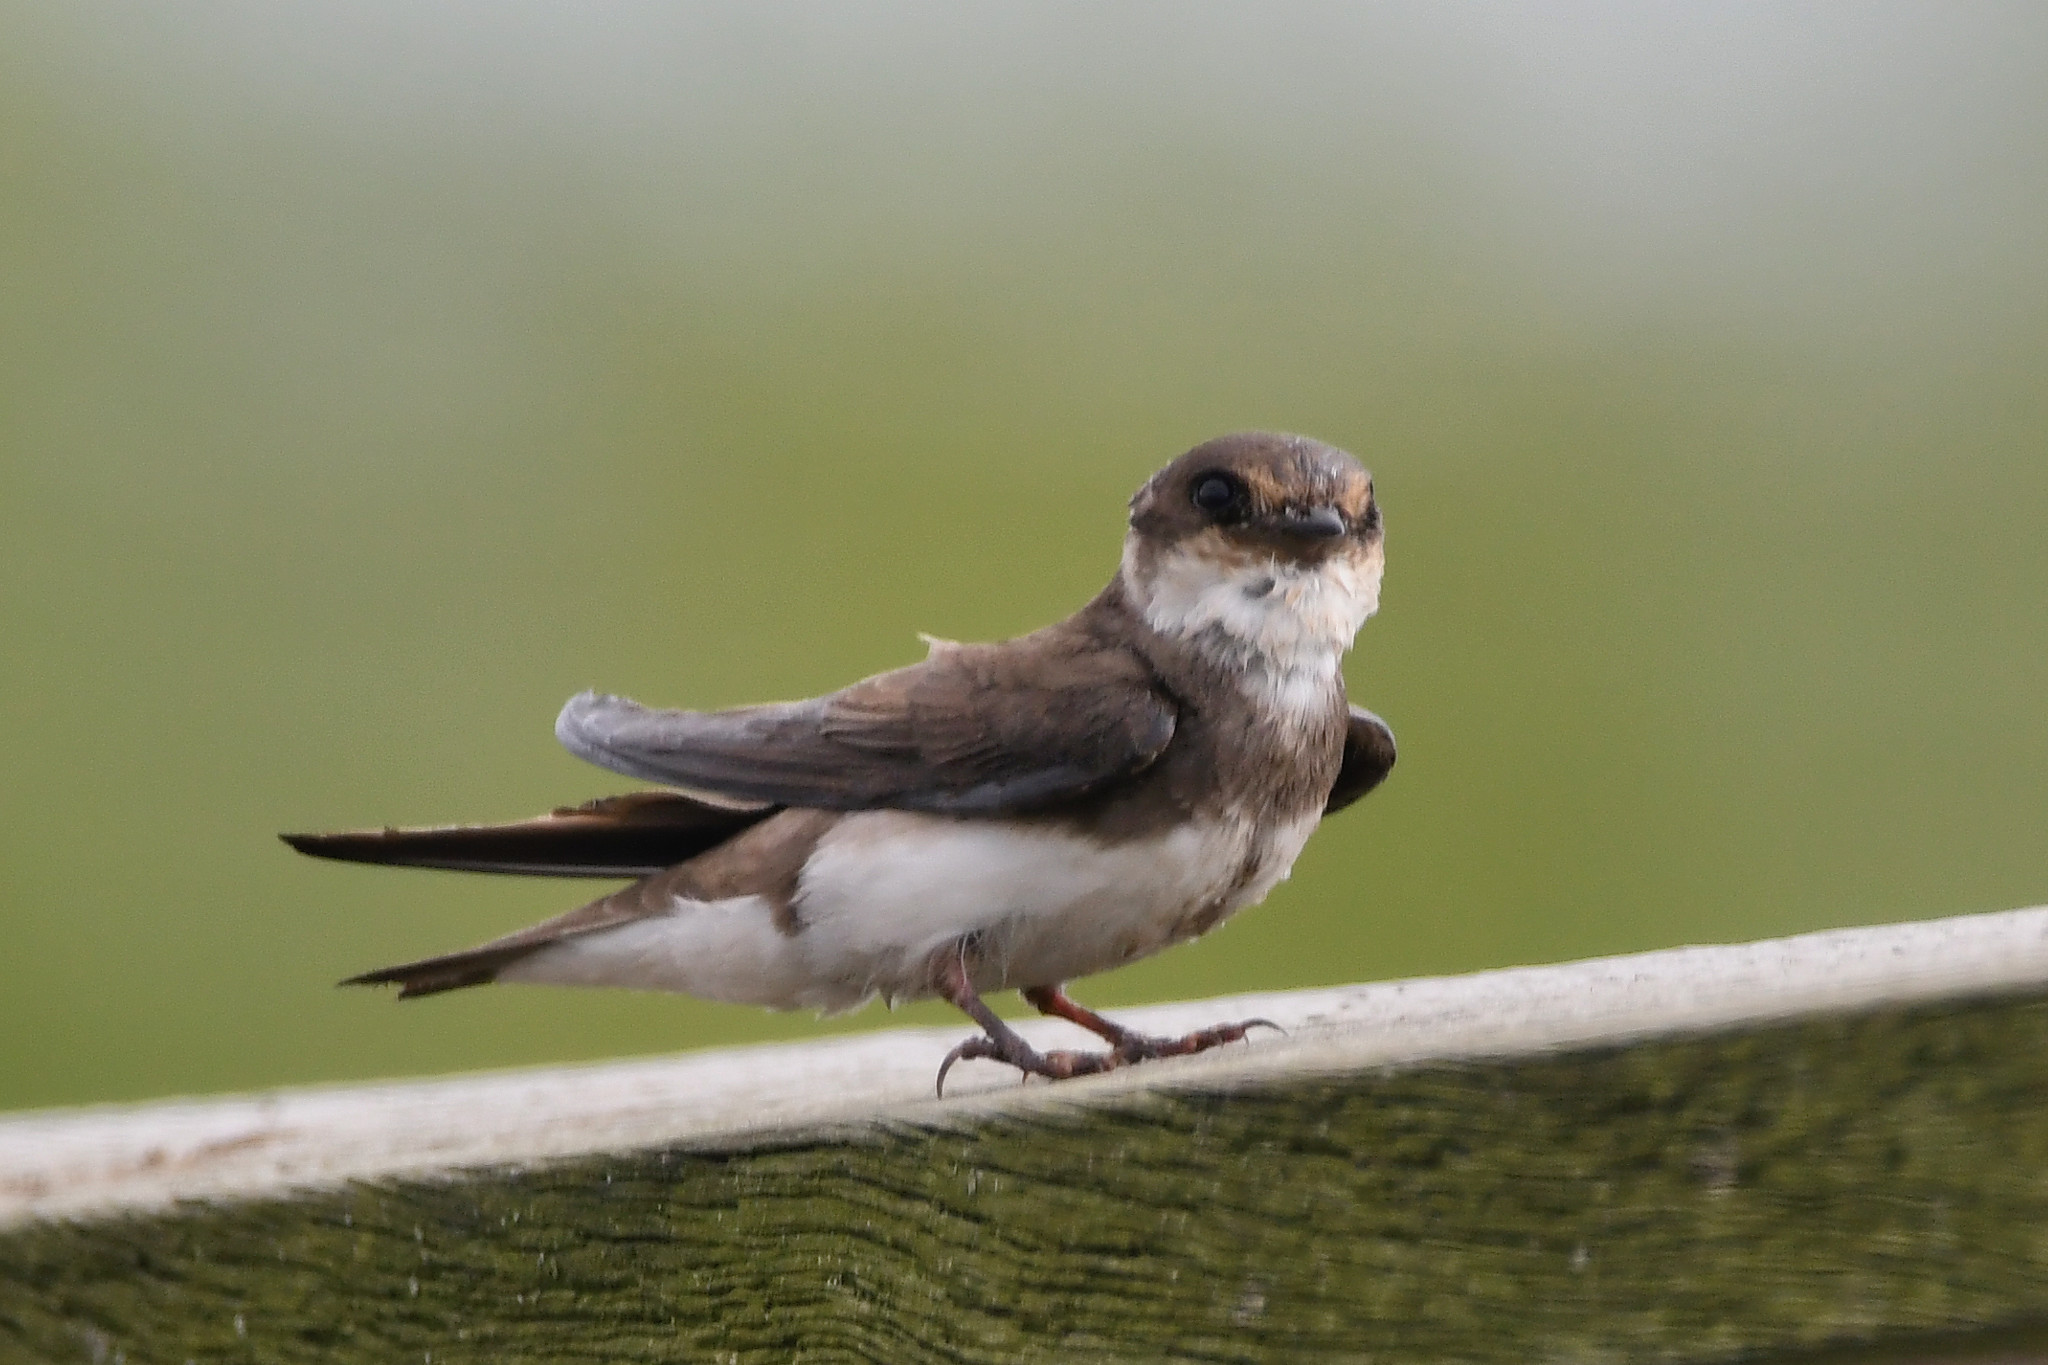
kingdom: Animalia
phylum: Chordata
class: Aves
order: Passeriformes
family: Hirundinidae
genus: Riparia
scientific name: Riparia riparia
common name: Sand martin
